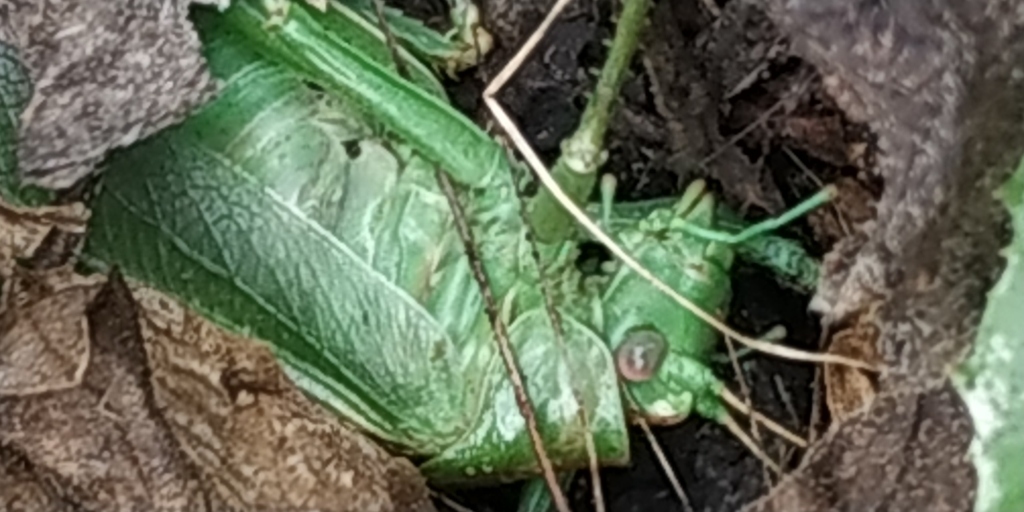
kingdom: Animalia
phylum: Arthropoda
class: Insecta
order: Orthoptera
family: Tettigoniidae
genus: Tettigonia
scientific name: Tettigonia viridissima
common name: Great green bush-cricket
